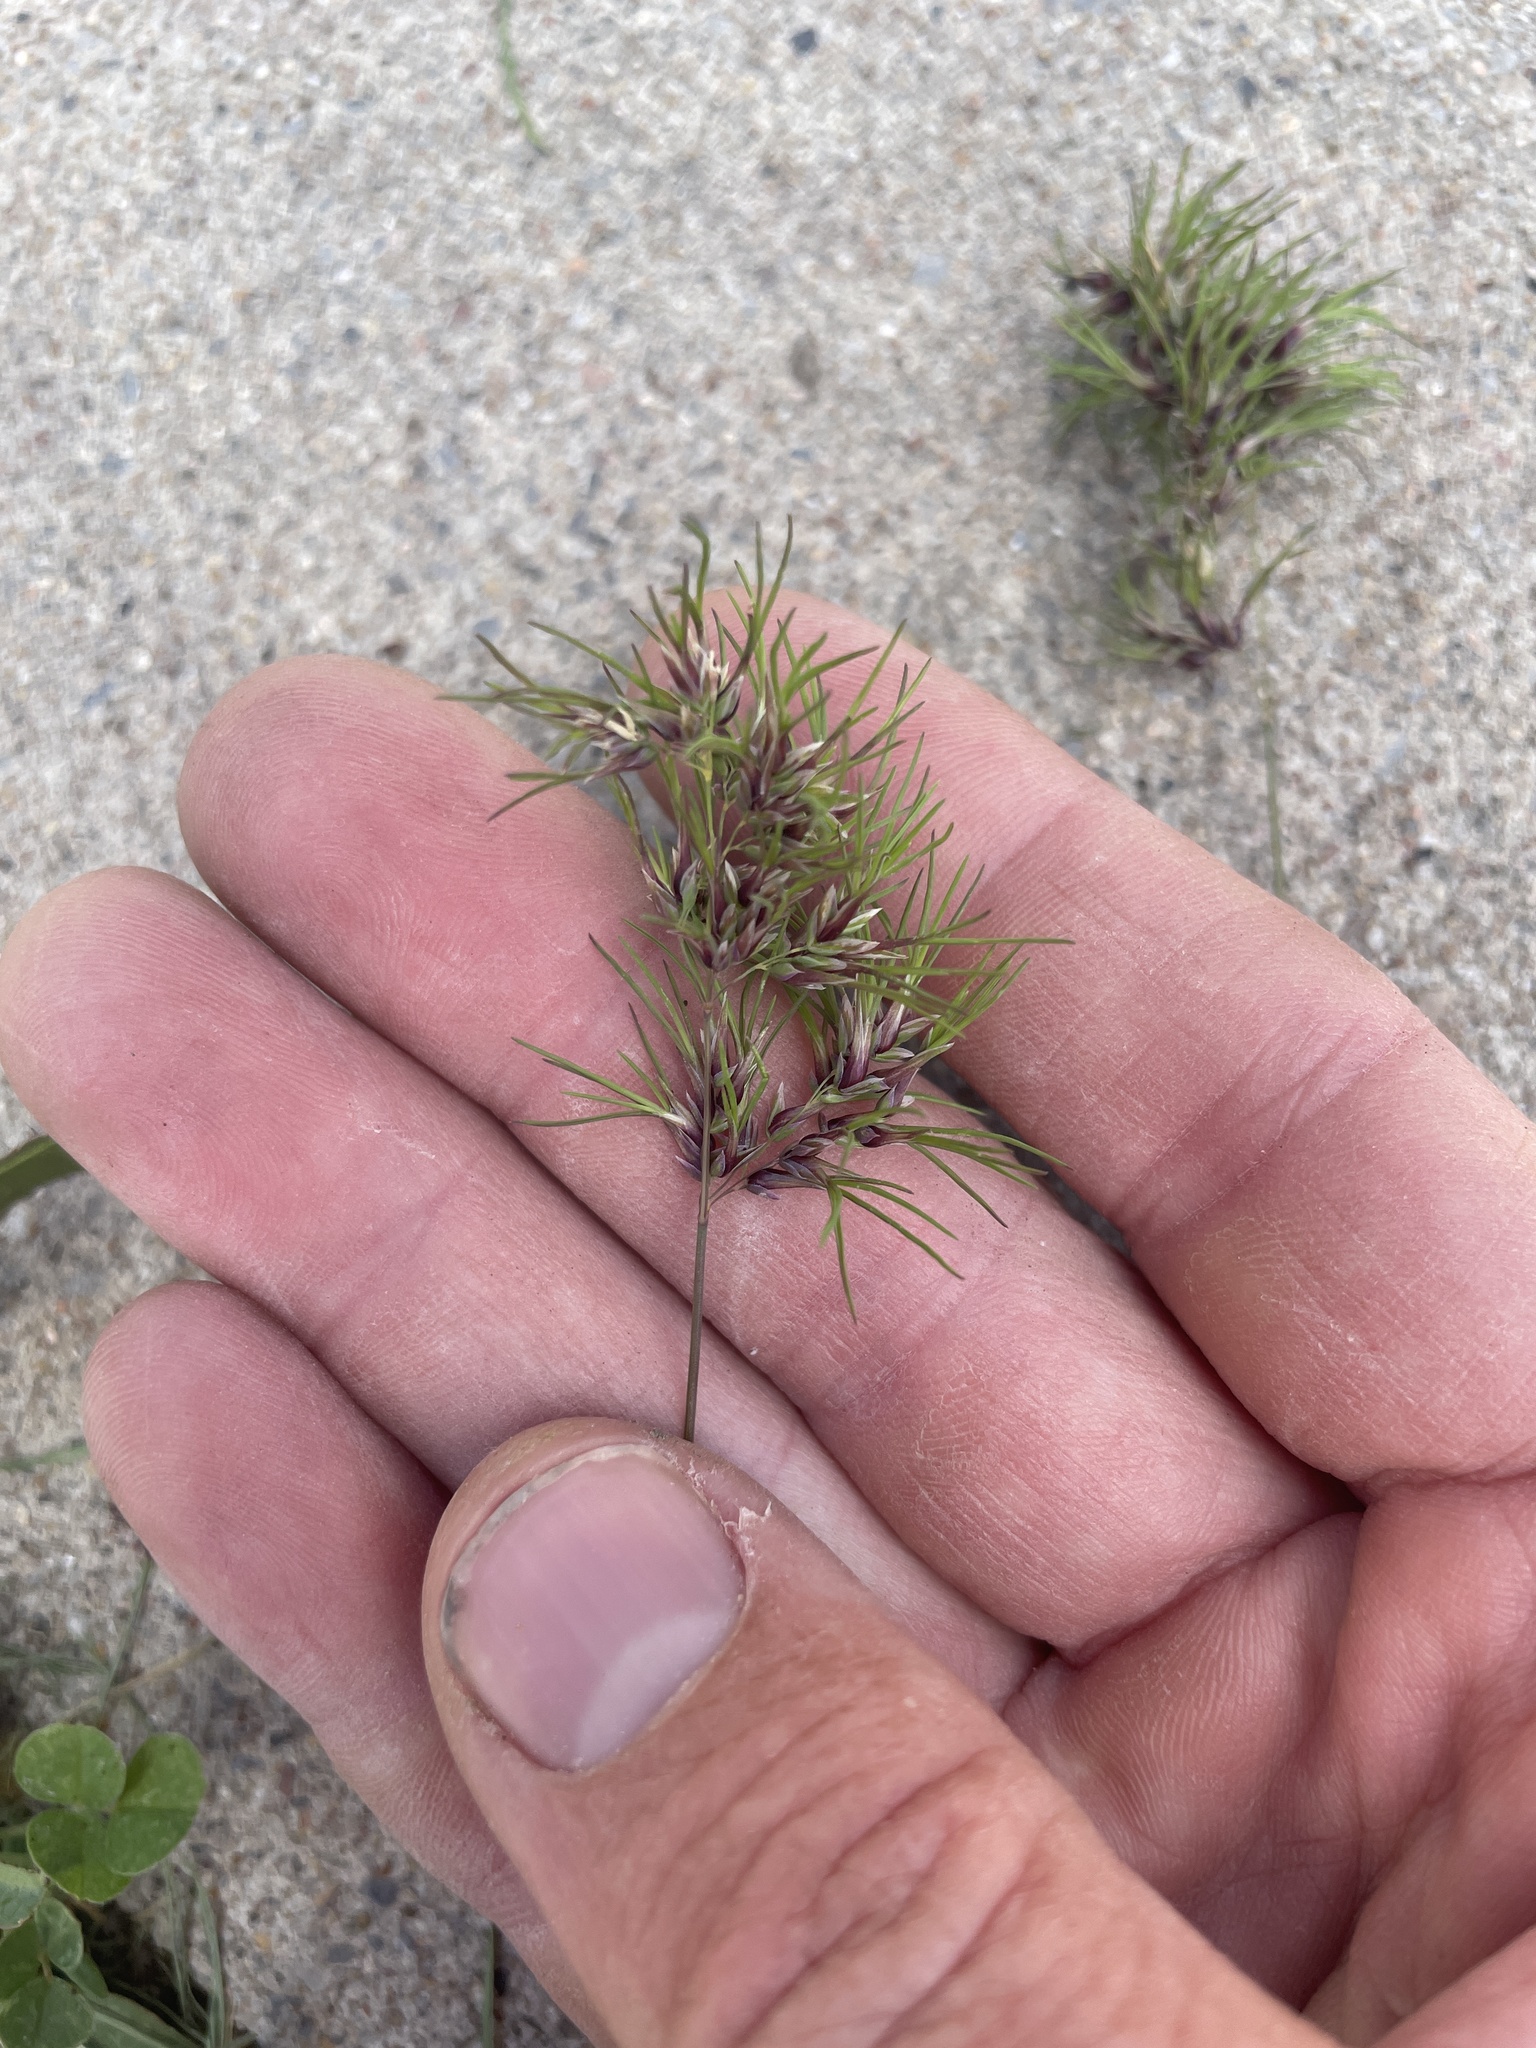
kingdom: Plantae
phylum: Tracheophyta
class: Liliopsida
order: Poales
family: Poaceae
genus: Poa
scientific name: Poa bulbosa
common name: Bulbous bluegrass
